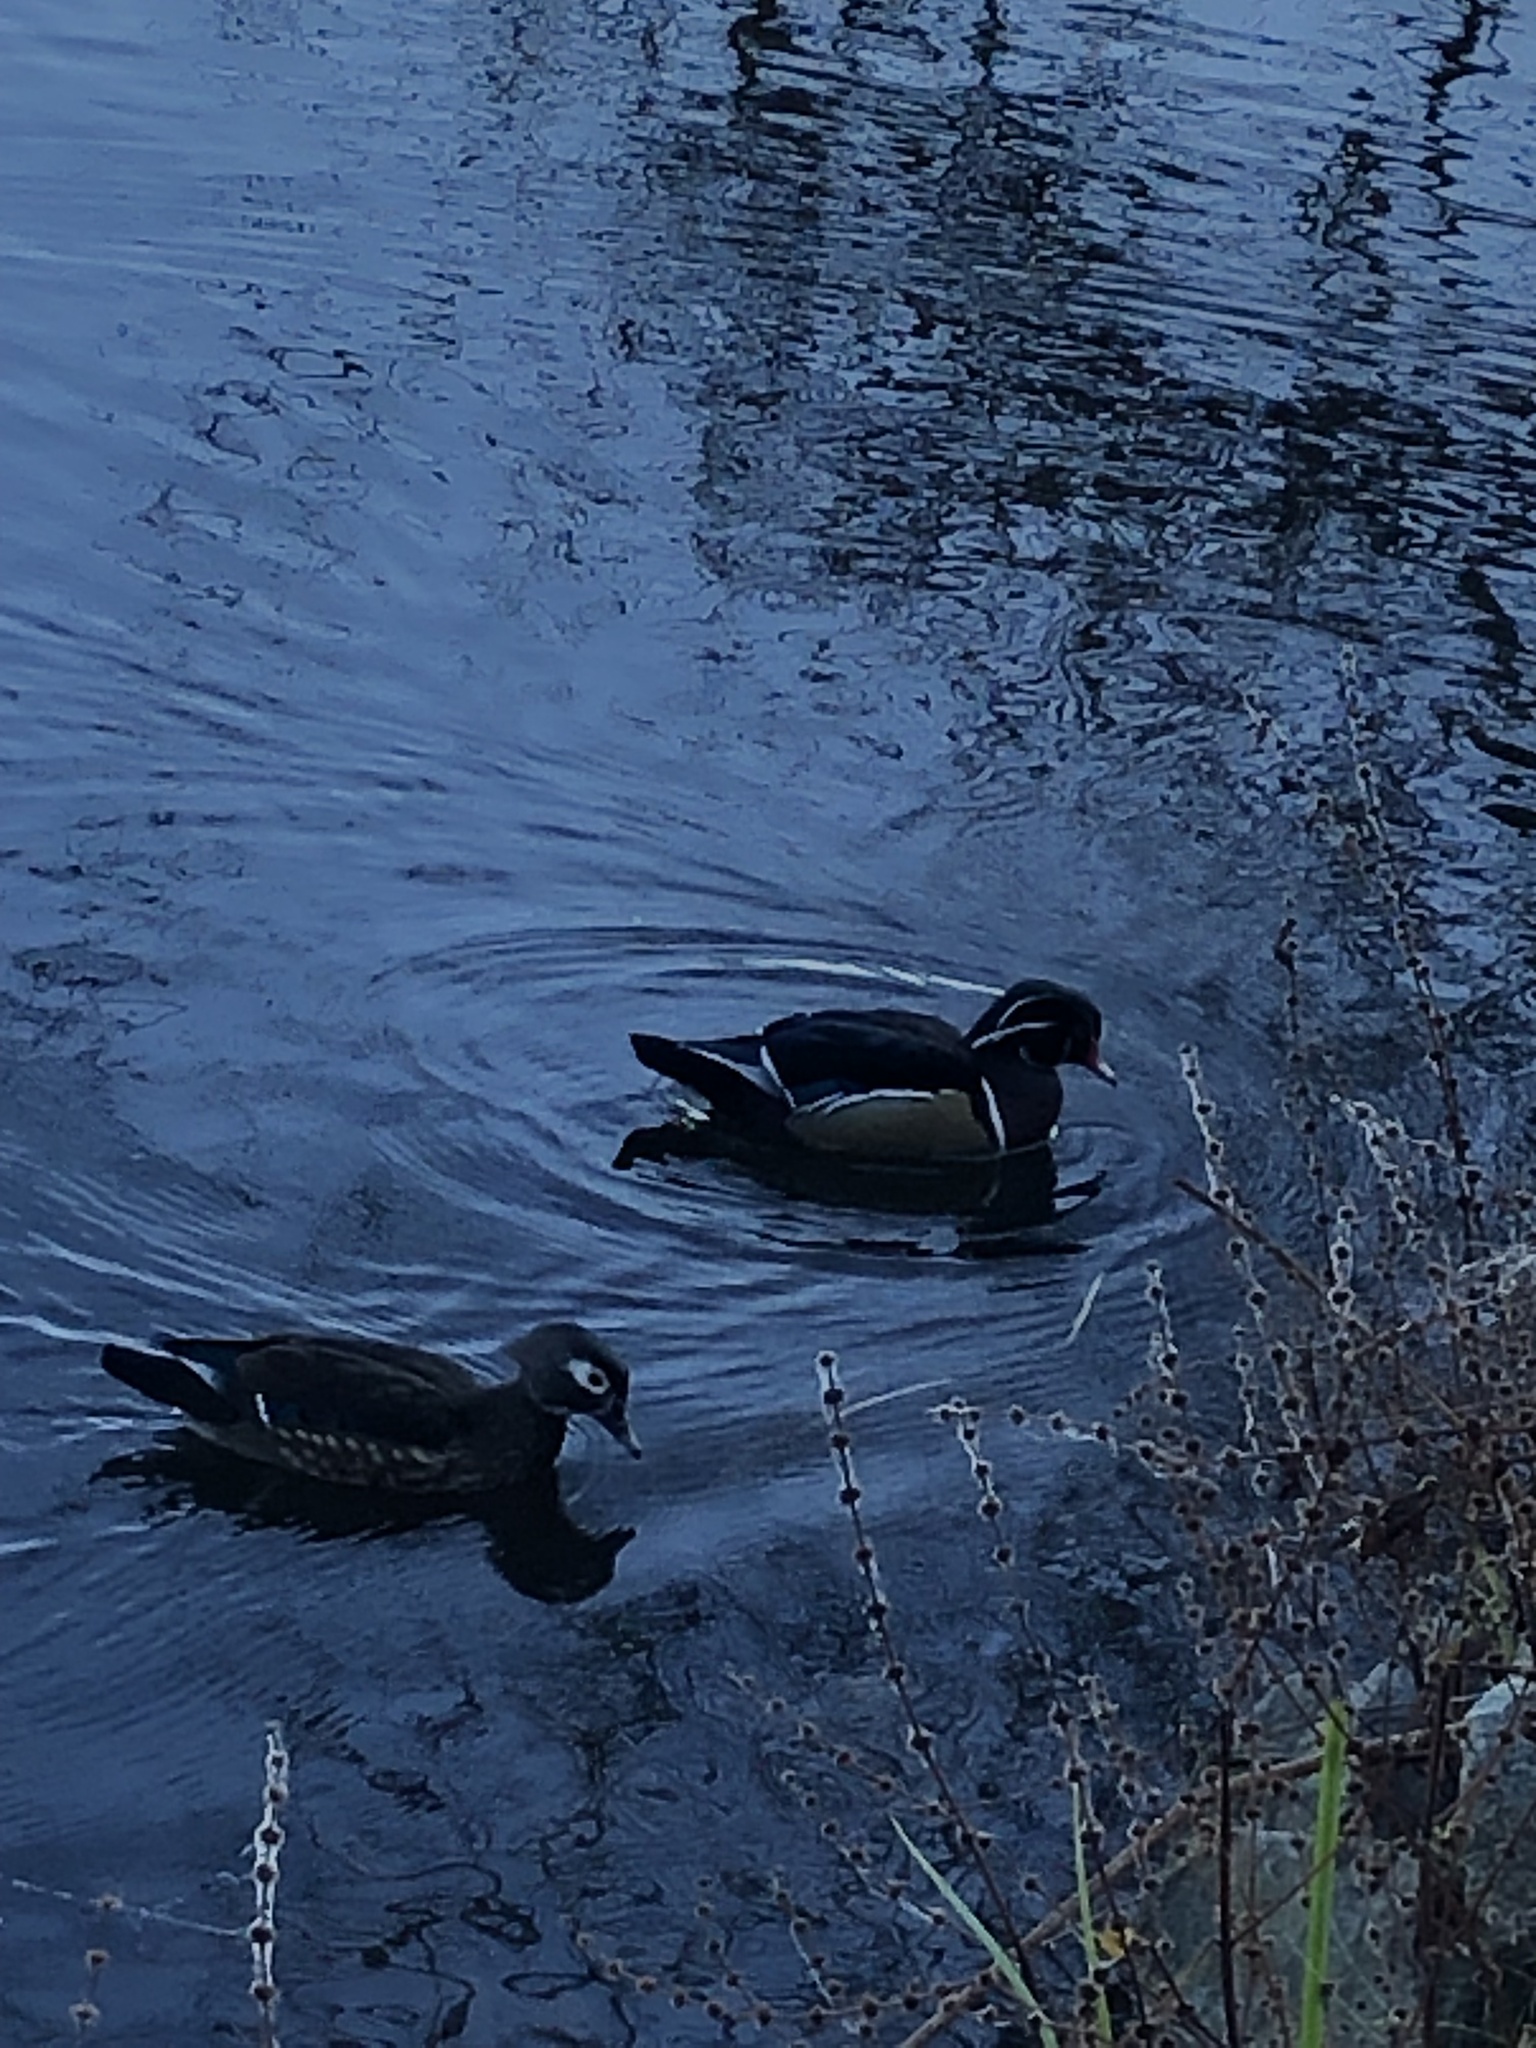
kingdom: Animalia
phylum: Chordata
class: Aves
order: Anseriformes
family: Anatidae
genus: Aix
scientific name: Aix sponsa
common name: Wood duck
